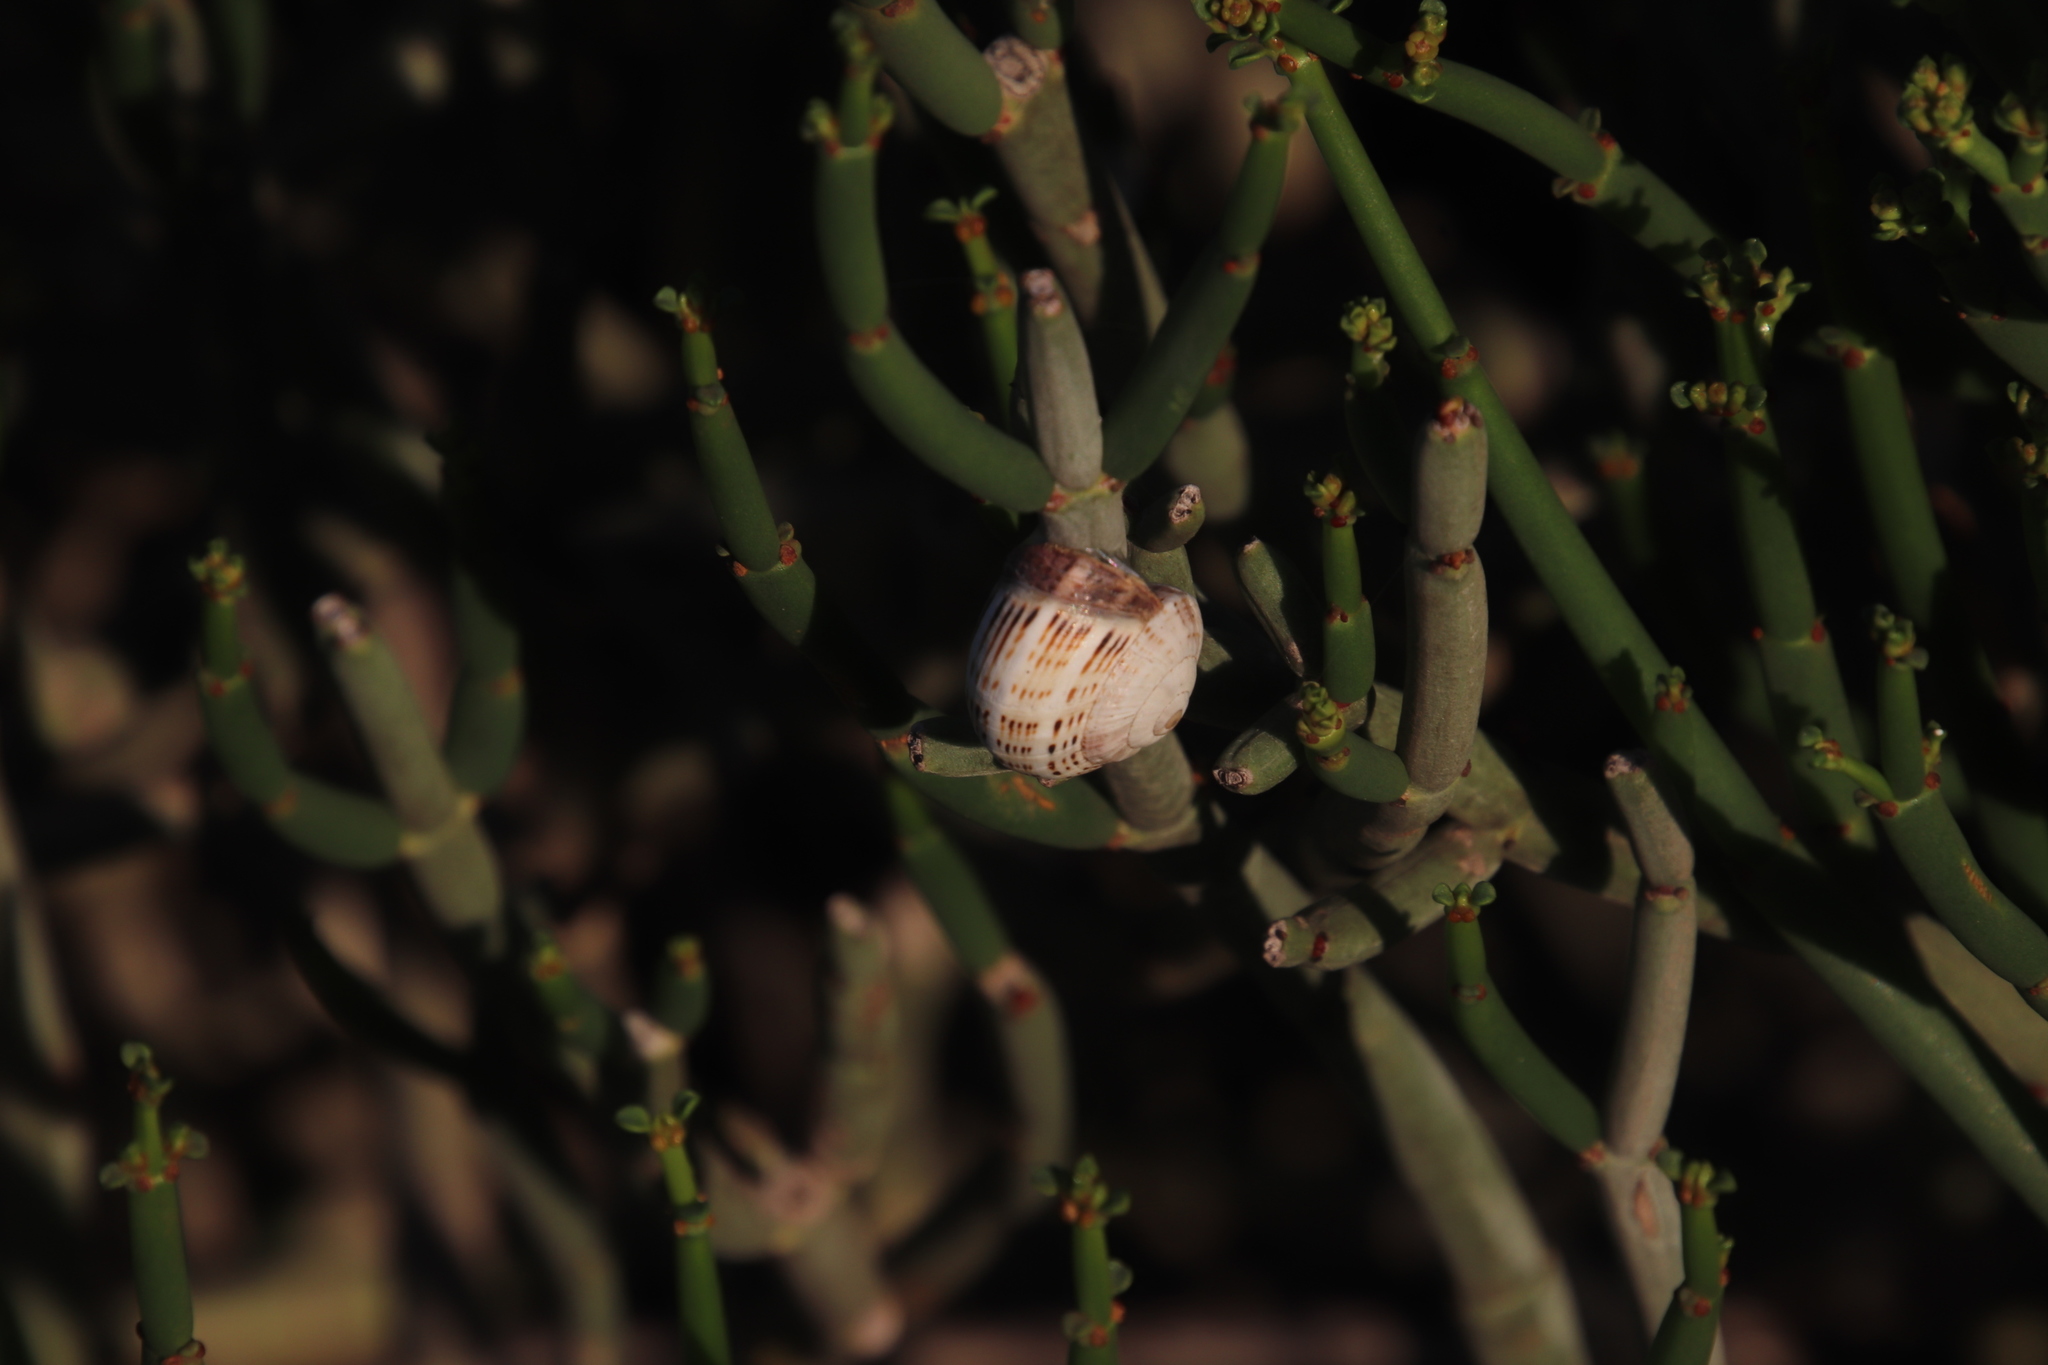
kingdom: Animalia
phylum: Mollusca
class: Gastropoda
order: Stylommatophora
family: Helicidae
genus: Theba
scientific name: Theba pisana
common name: White snail
